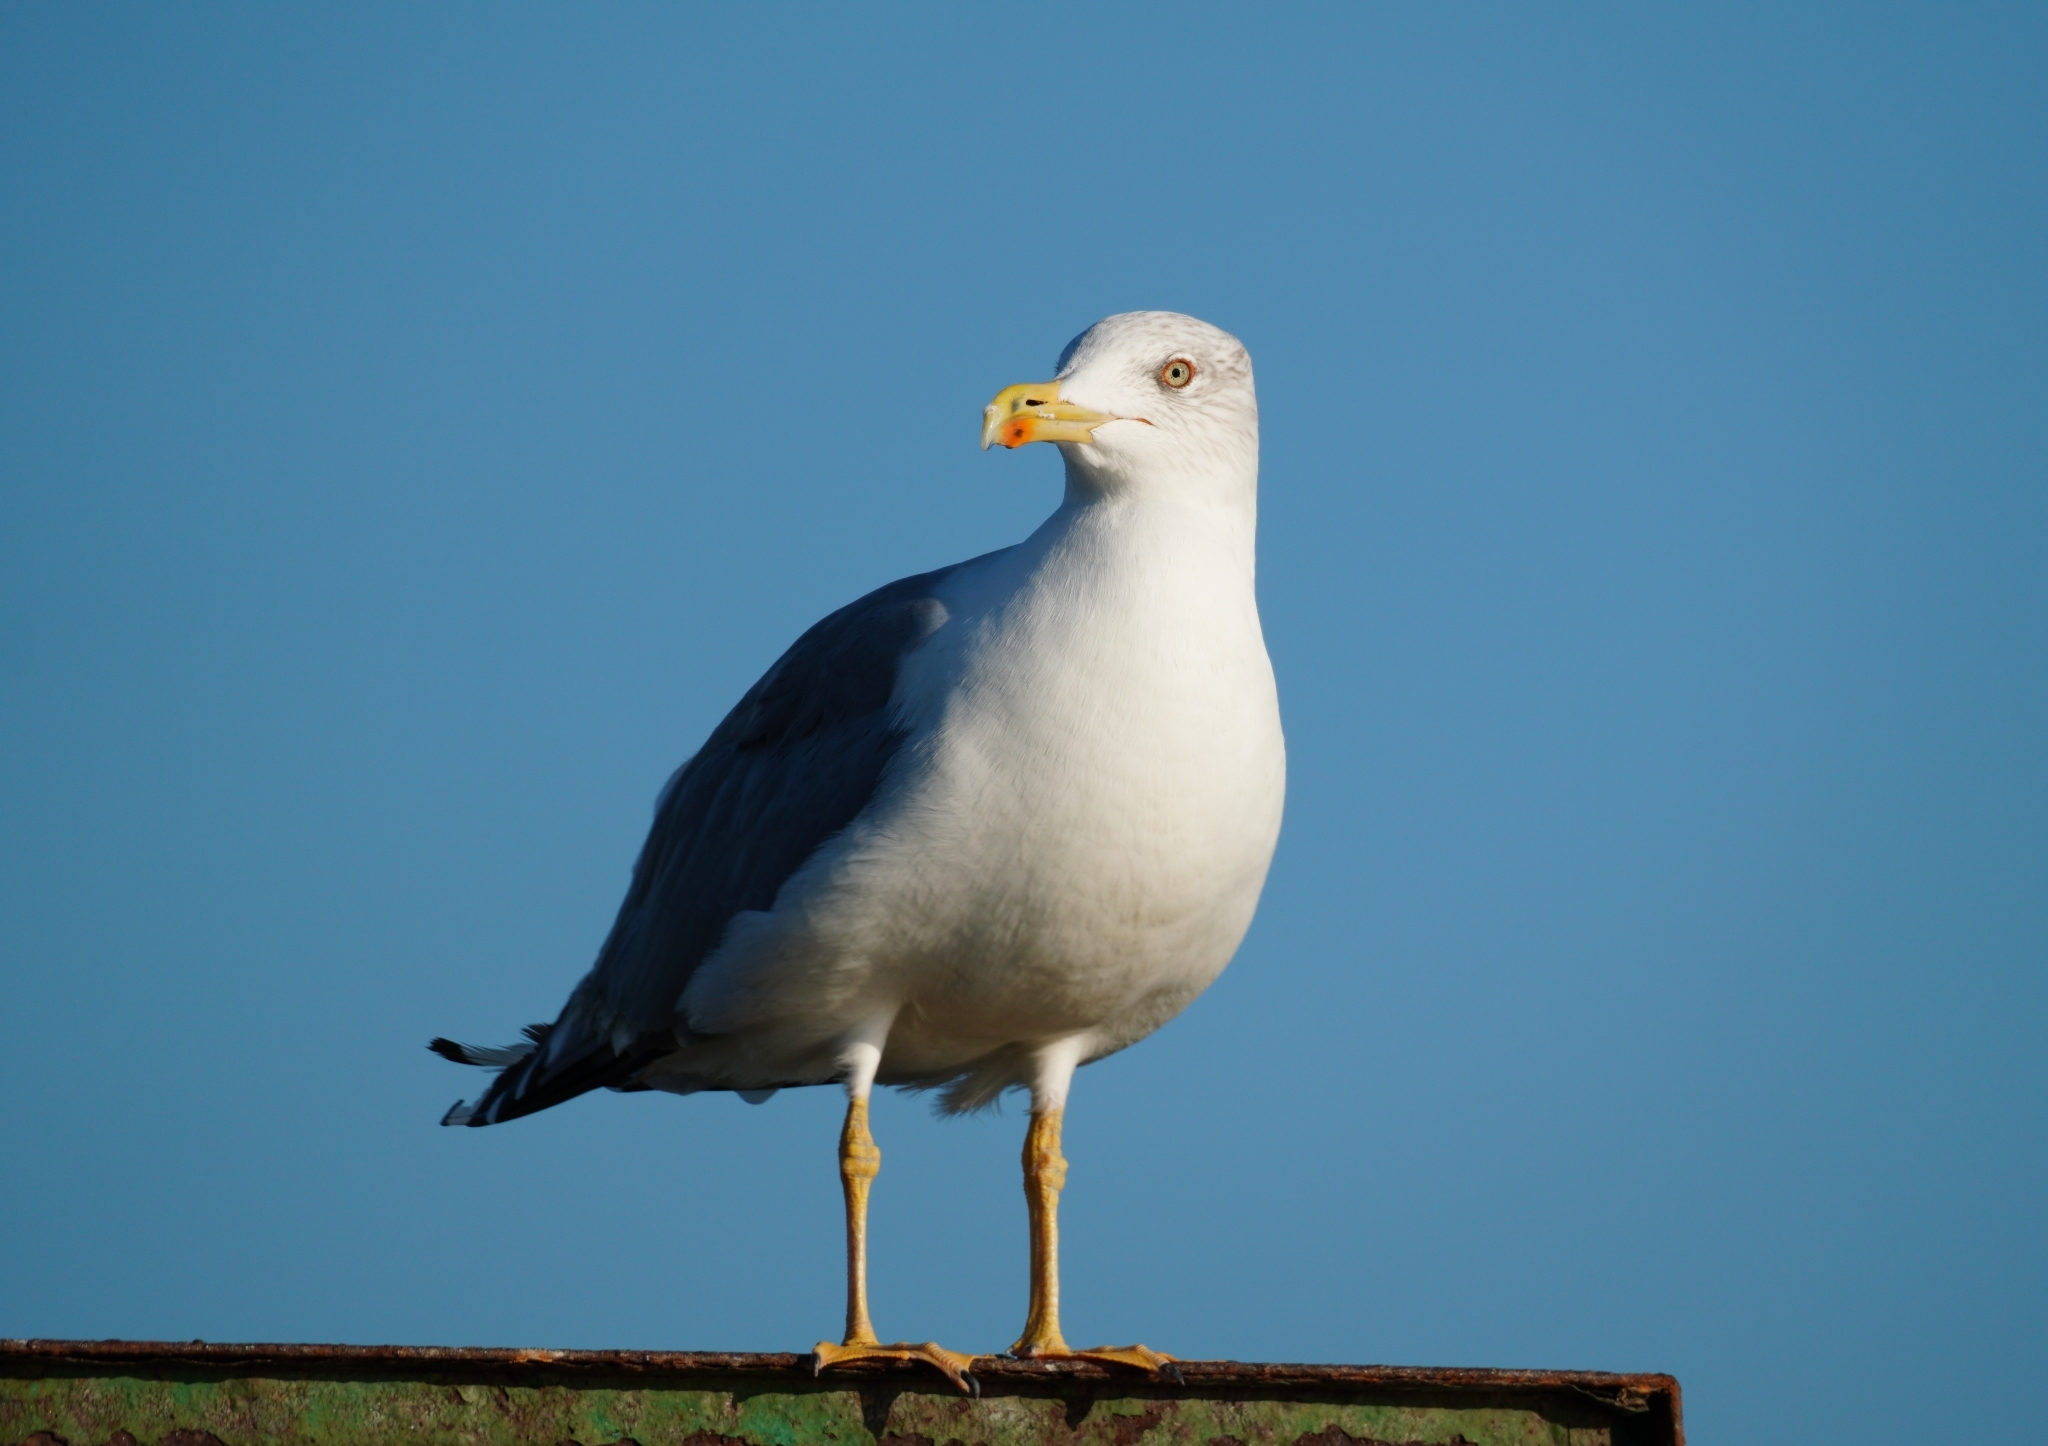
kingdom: Animalia
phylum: Chordata
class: Aves
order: Charadriiformes
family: Laridae
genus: Larus
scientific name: Larus michahellis
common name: Yellow-legged gull
